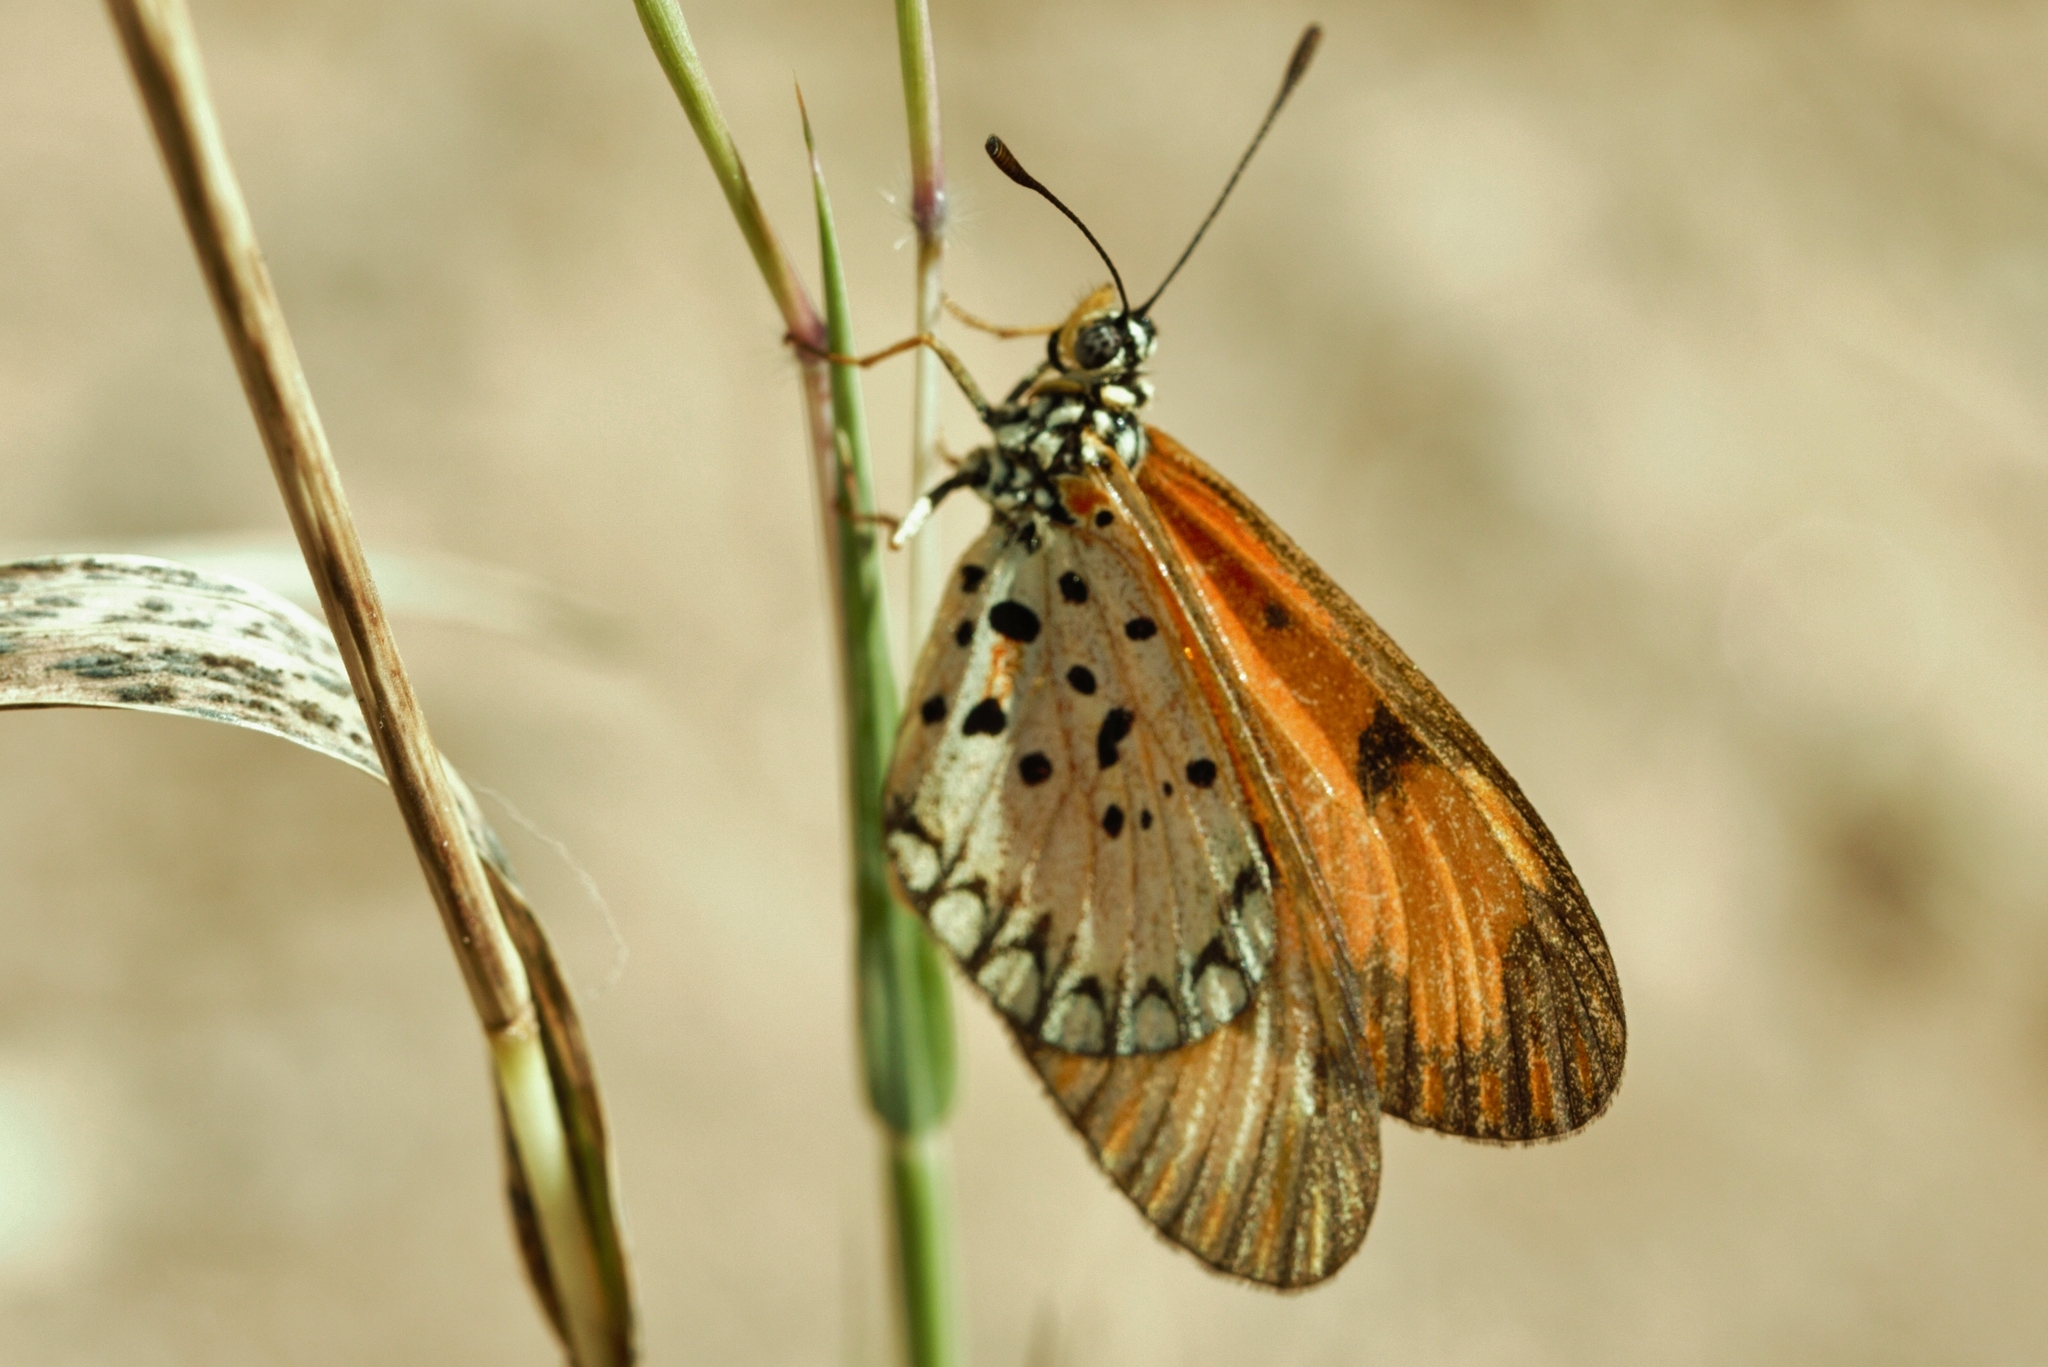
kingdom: Animalia
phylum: Arthropoda
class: Insecta
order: Lepidoptera
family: Nymphalidae
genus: Acraea
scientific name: Acraea Telchinia serena
